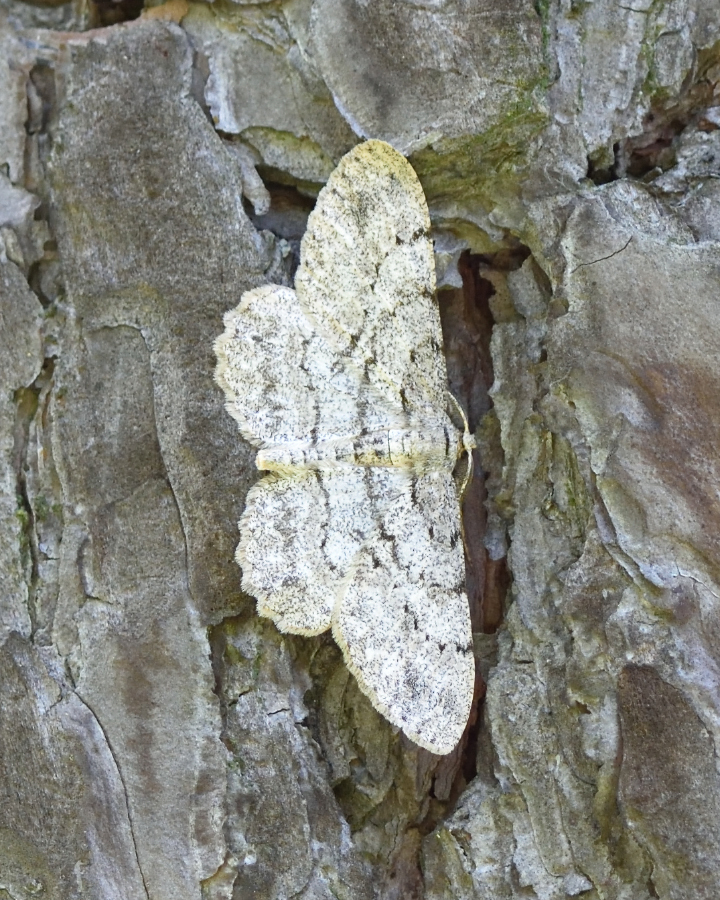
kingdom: Animalia
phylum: Arthropoda
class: Insecta
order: Lepidoptera
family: Geometridae
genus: Hypomecis
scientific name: Hypomecis punctinalis
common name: Pale oak beauty
